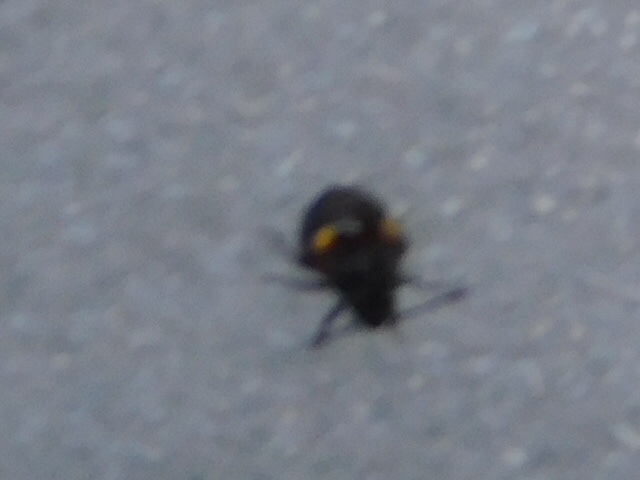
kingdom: Animalia
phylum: Arthropoda
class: Insecta
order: Hemiptera
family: Pentatomidae
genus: Thyanta
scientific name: Thyanta perditor
